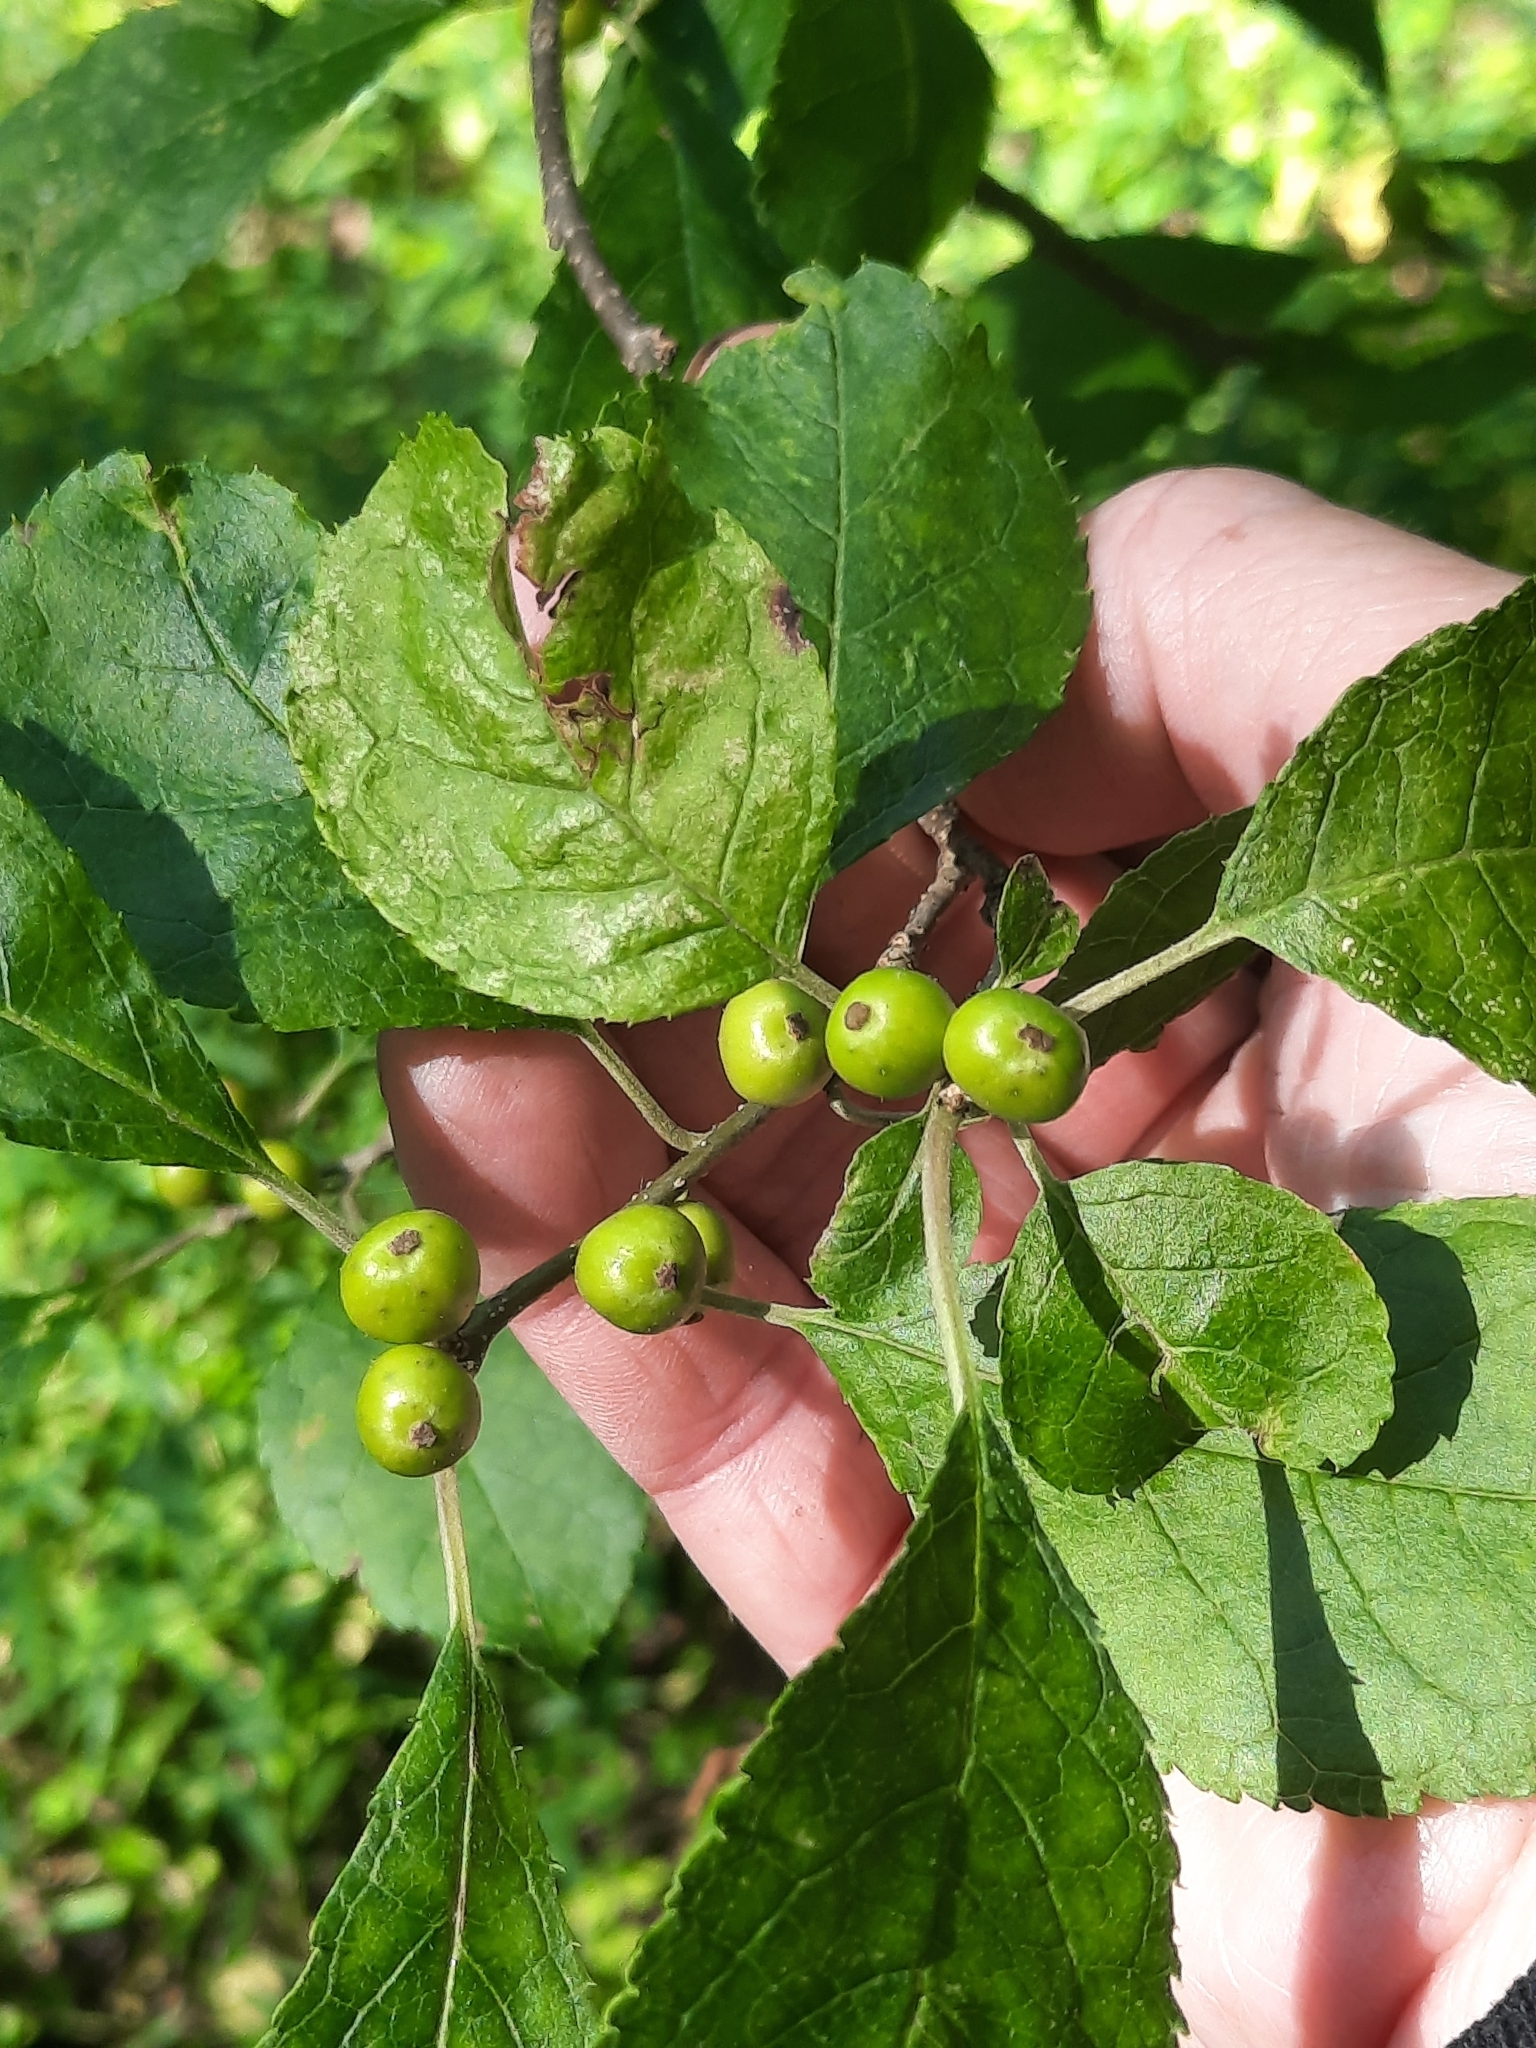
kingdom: Plantae
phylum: Tracheophyta
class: Magnoliopsida
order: Aquifoliales
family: Aquifoliaceae
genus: Ilex
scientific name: Ilex verticillata
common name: Virginia winterberry
